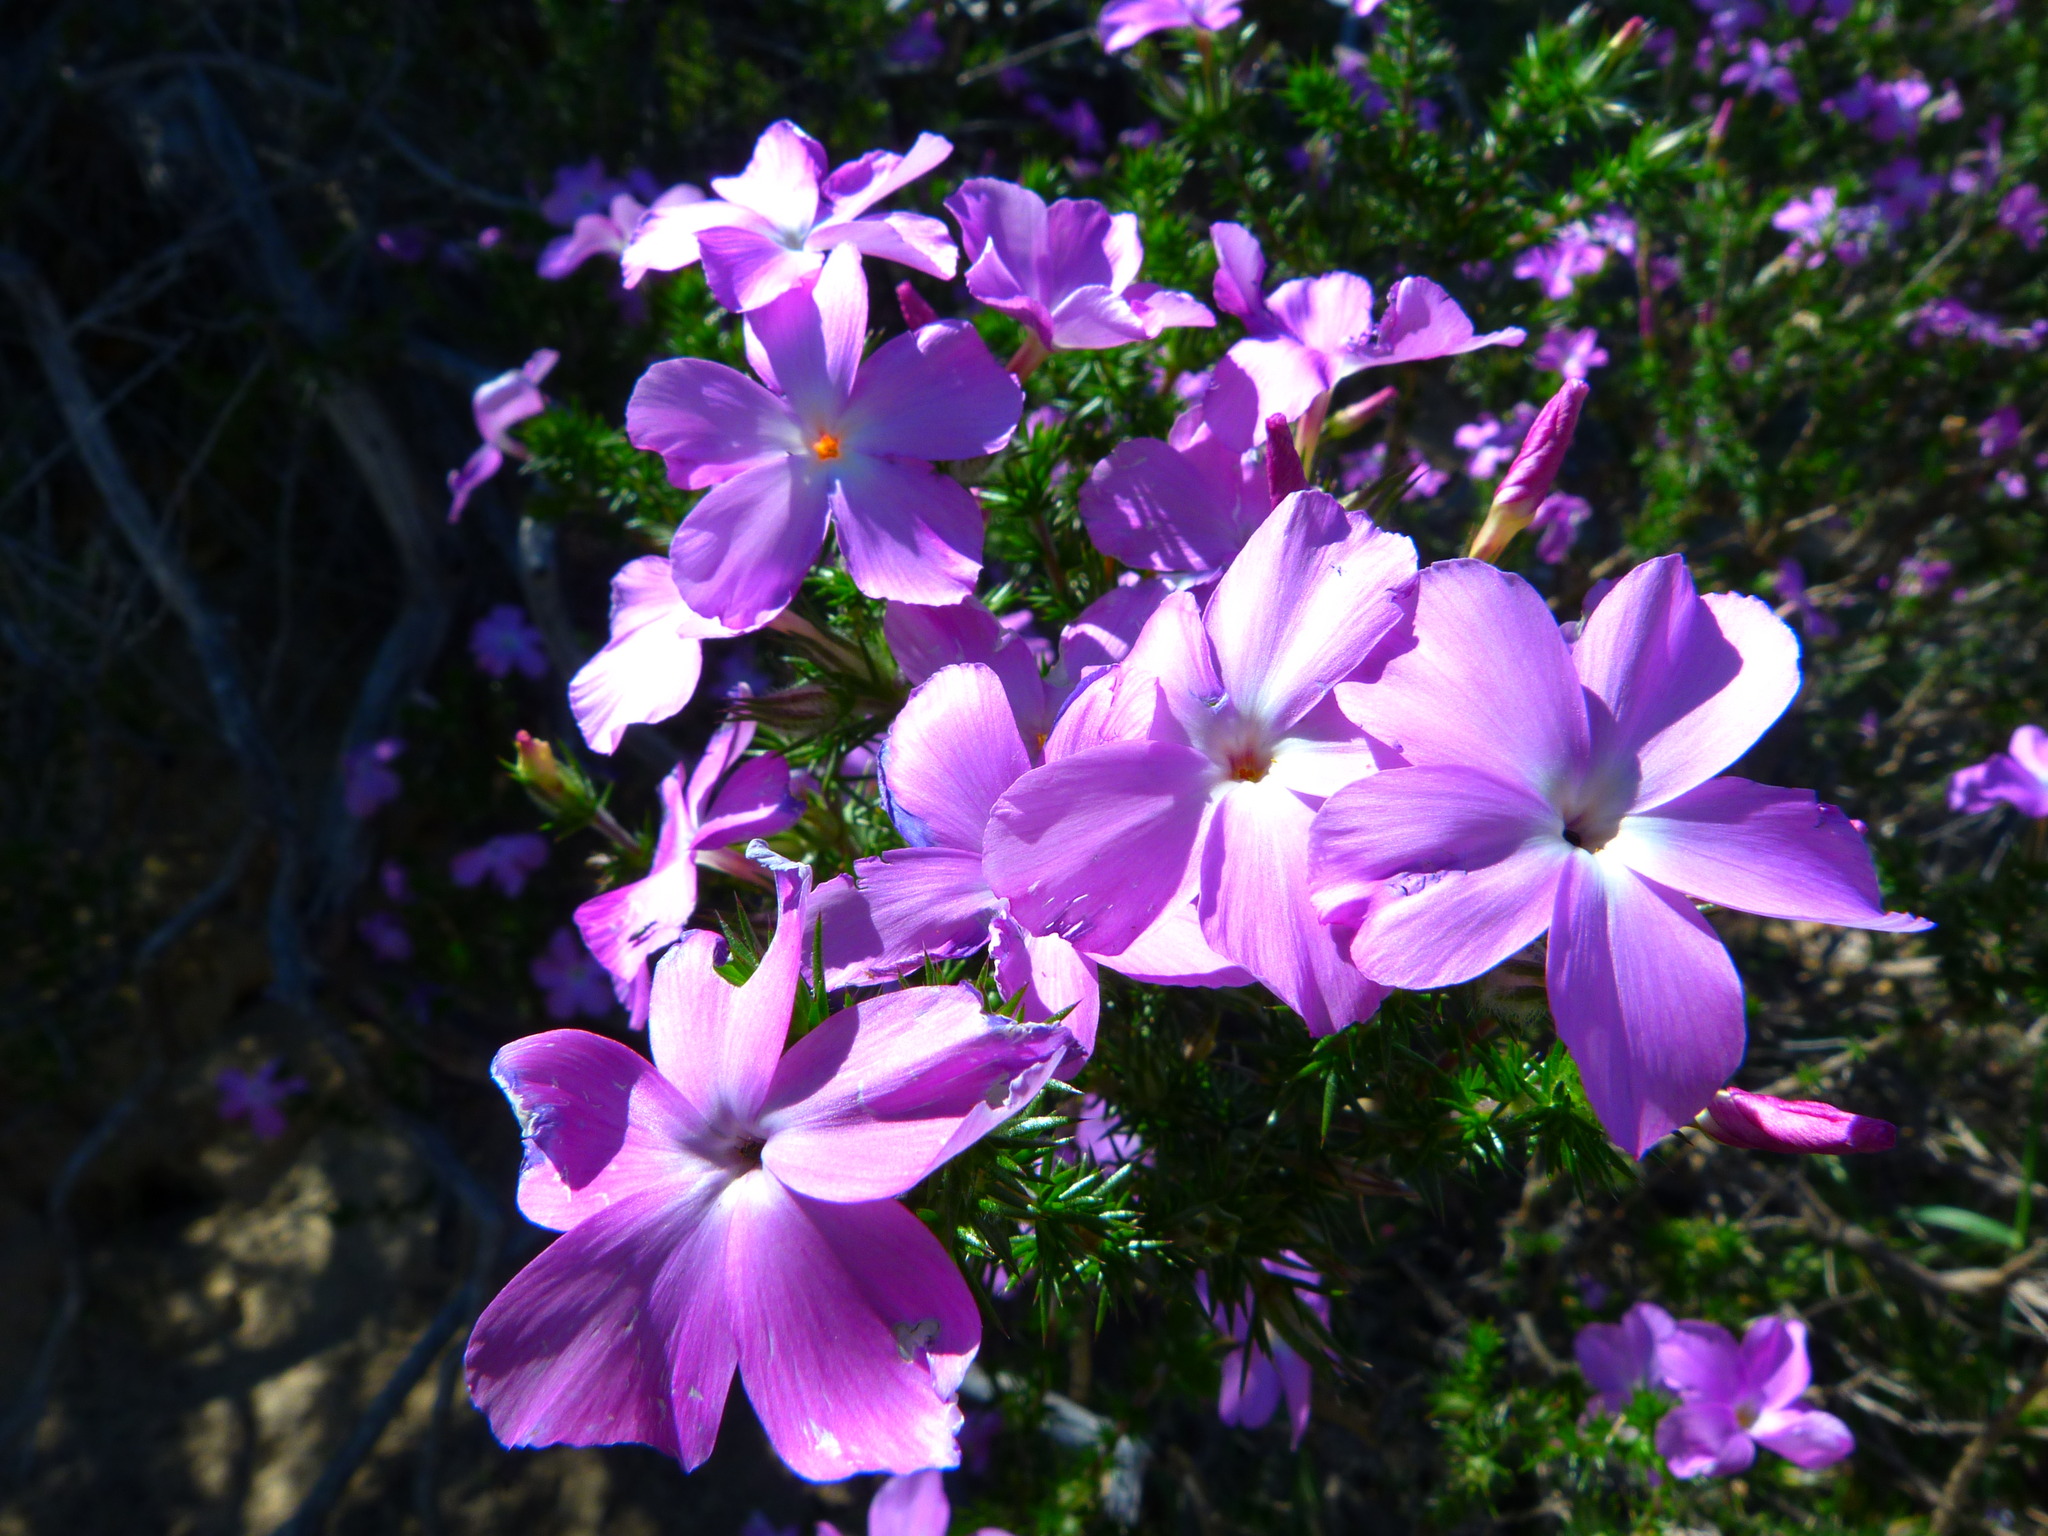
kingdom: Plantae
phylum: Tracheophyta
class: Magnoliopsida
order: Ericales
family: Polemoniaceae
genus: Linanthus
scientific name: Linanthus californicus
